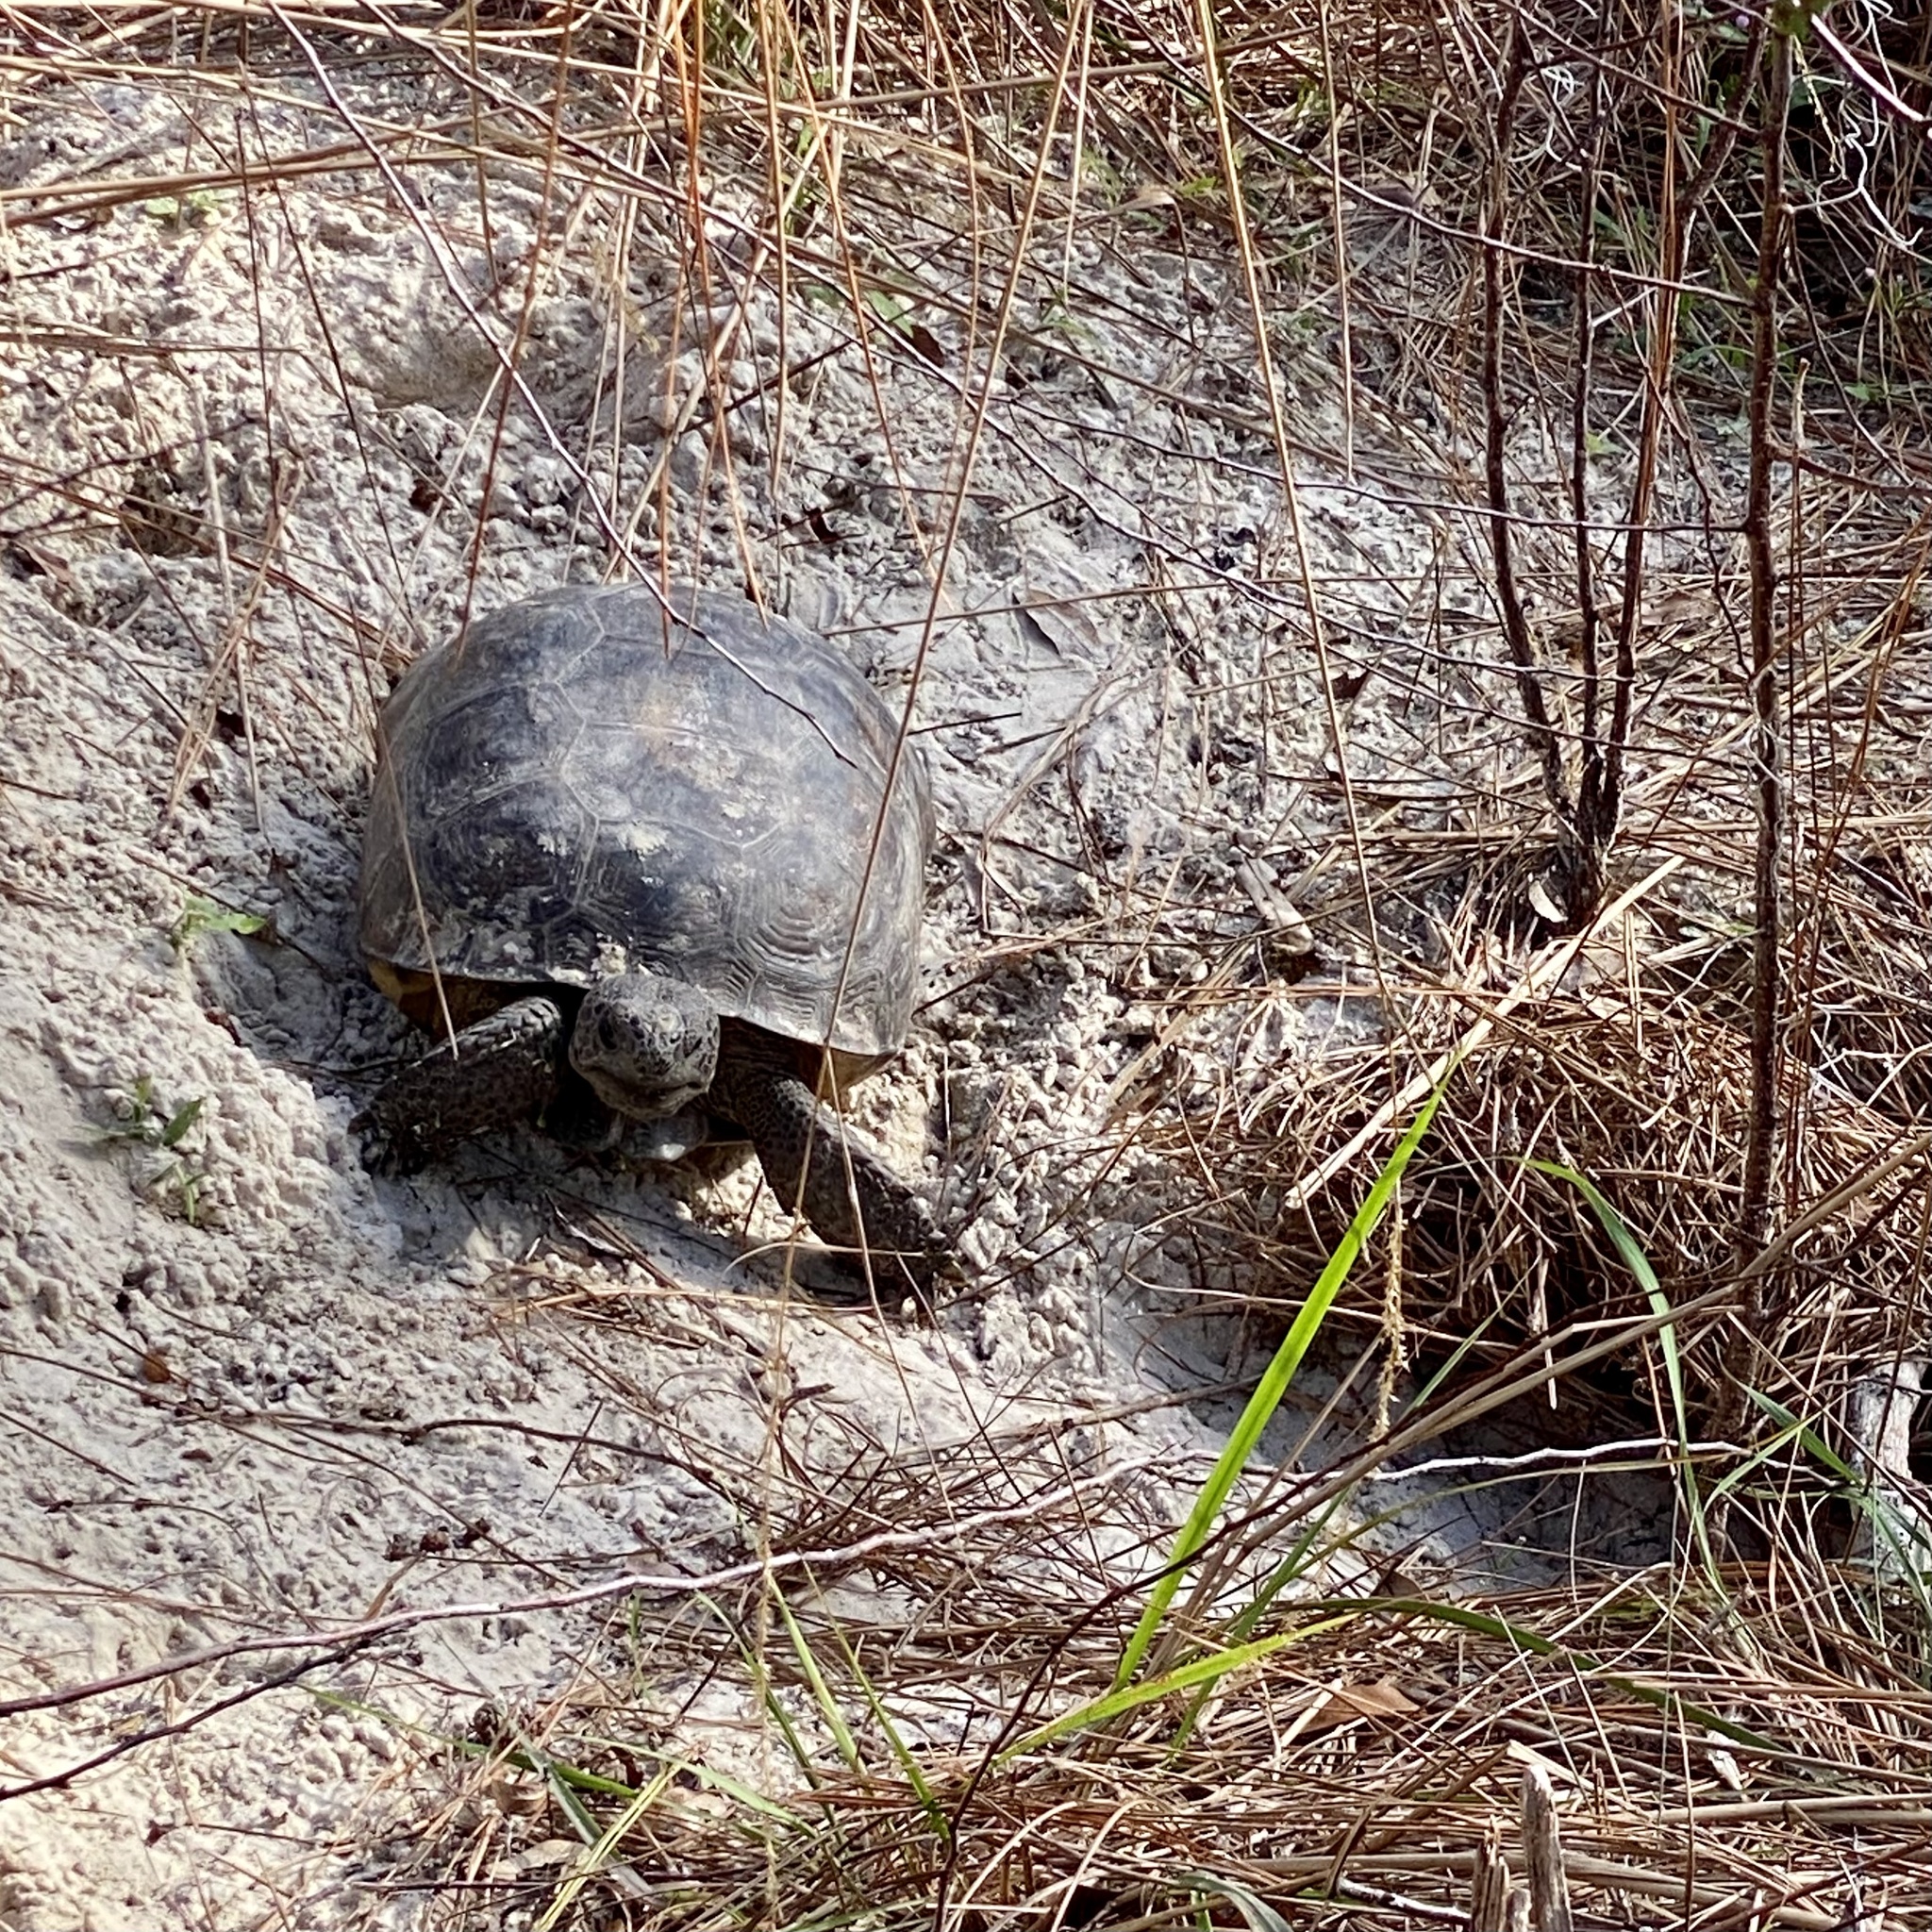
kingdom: Animalia
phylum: Chordata
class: Testudines
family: Testudinidae
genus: Gopherus
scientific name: Gopherus polyphemus
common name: Florida gopher tortoise
